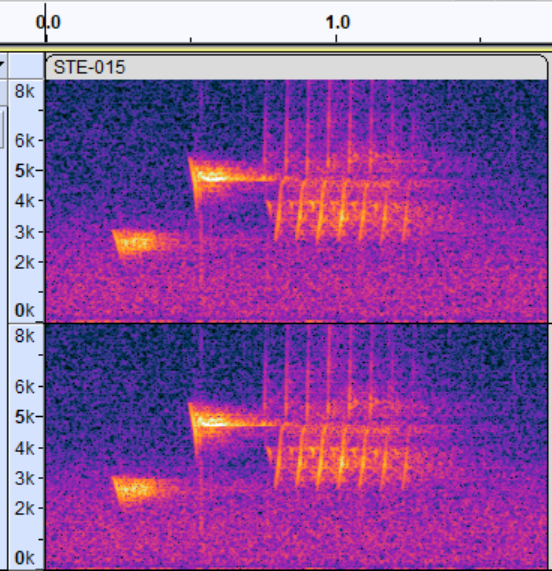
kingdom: Animalia
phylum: Chordata
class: Aves
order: Passeriformes
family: Passerellidae
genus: Pipilo
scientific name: Pipilo erythrophthalmus
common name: Eastern towhee
